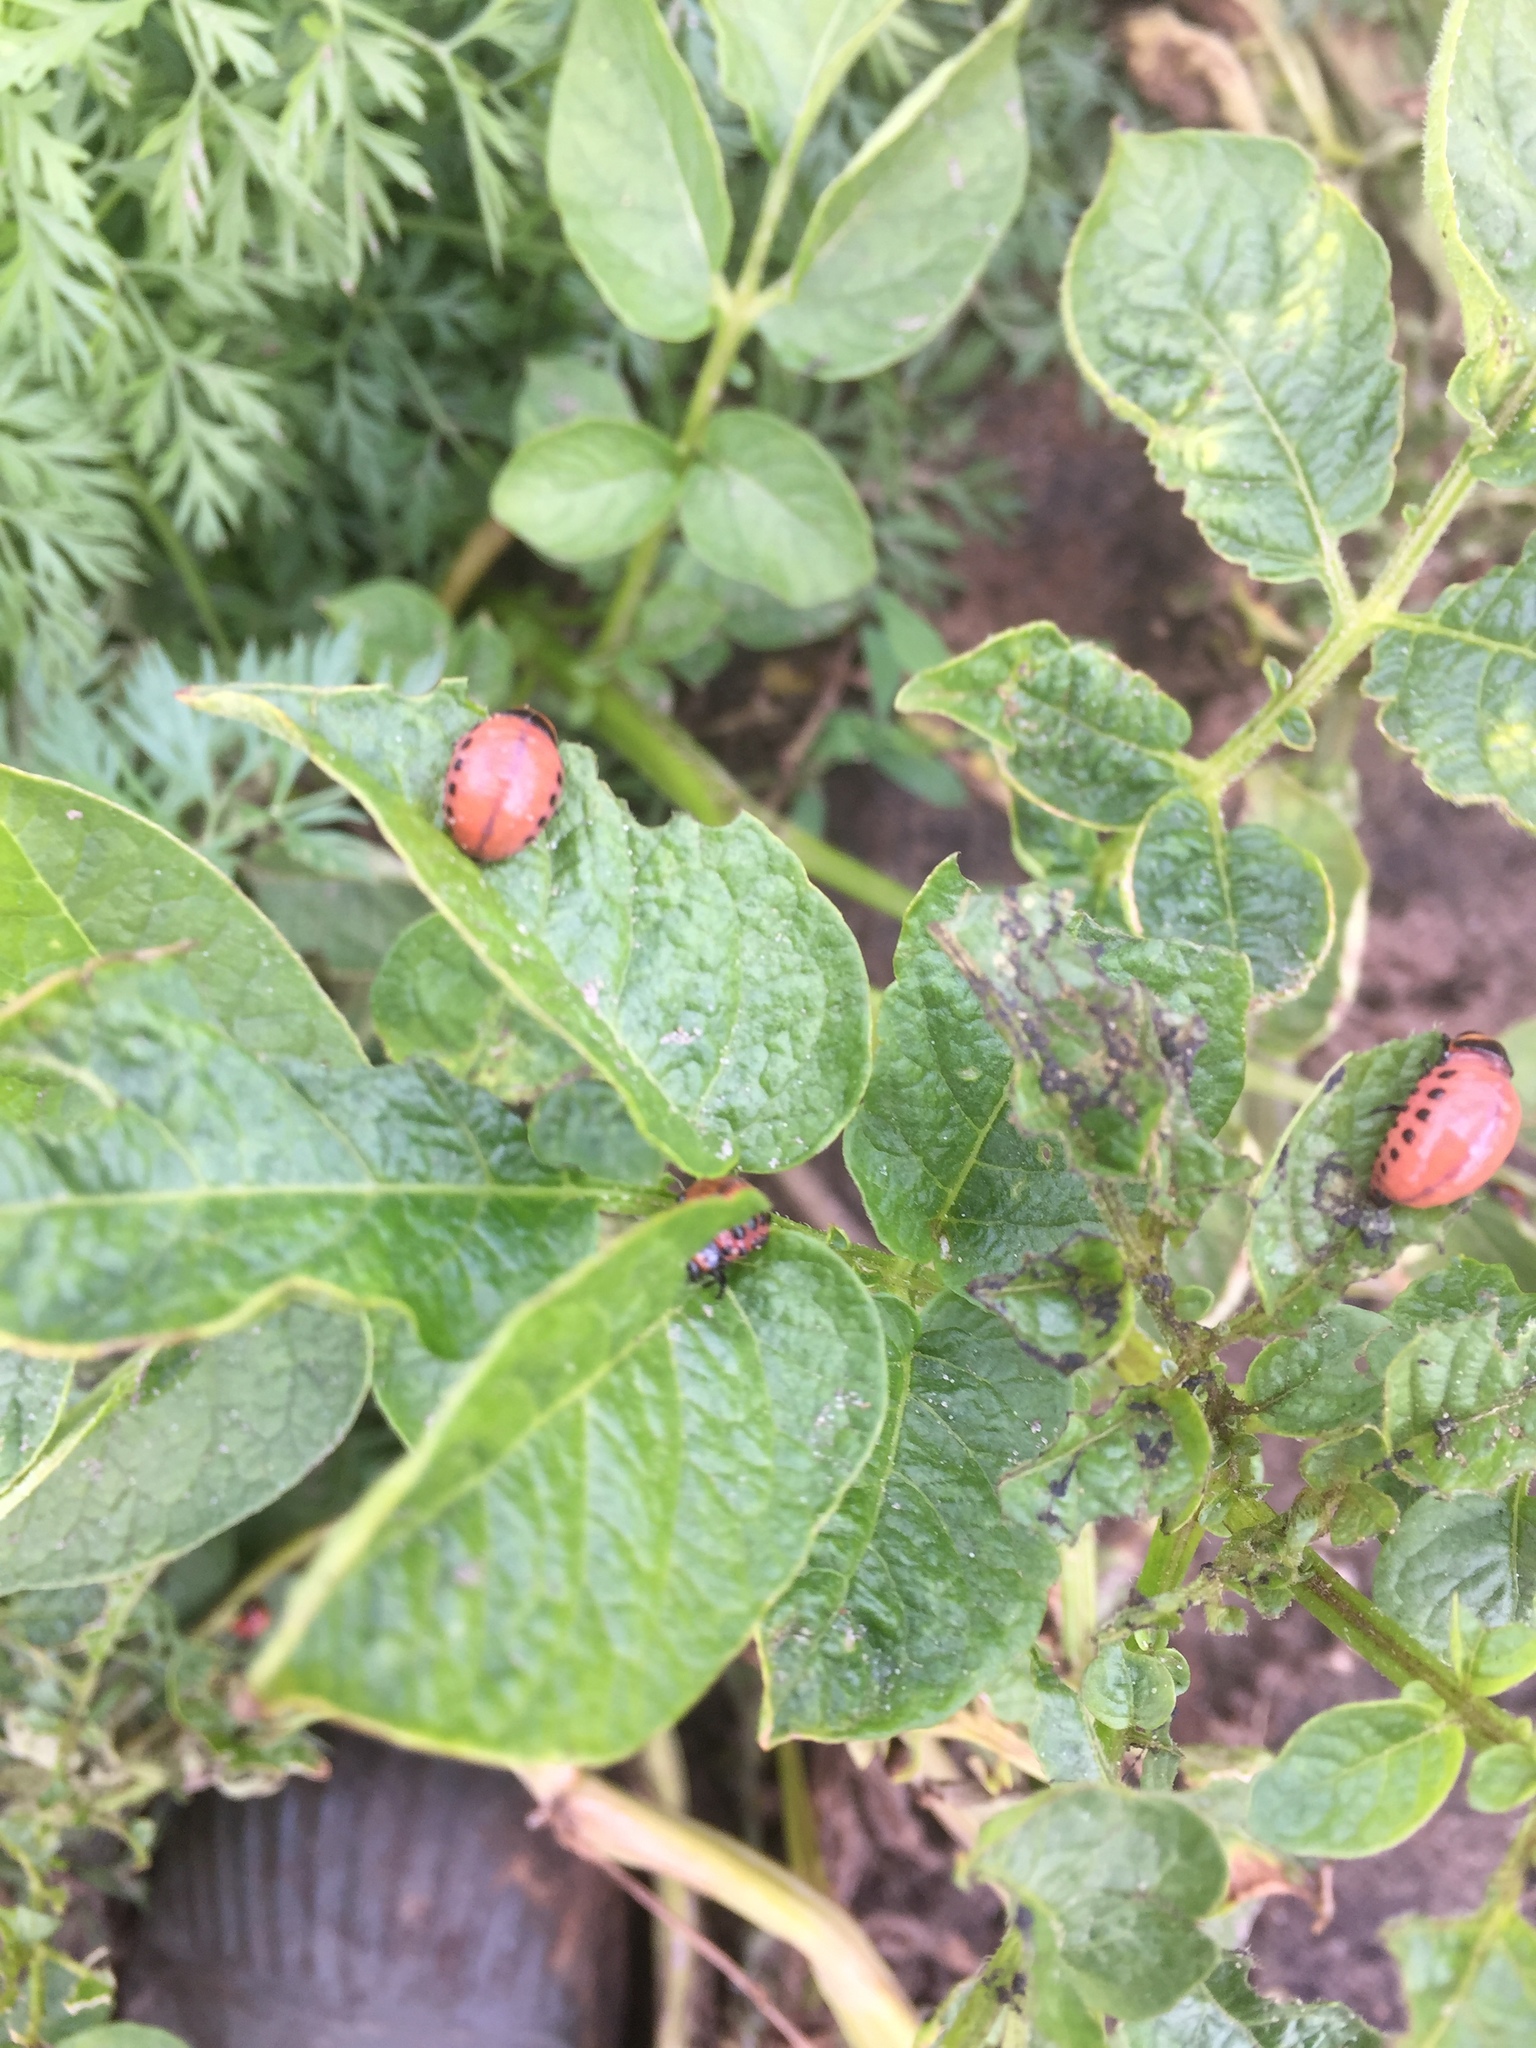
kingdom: Animalia
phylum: Arthropoda
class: Insecta
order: Coleoptera
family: Chrysomelidae
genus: Leptinotarsa
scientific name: Leptinotarsa decemlineata
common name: Colorado potato beetle
